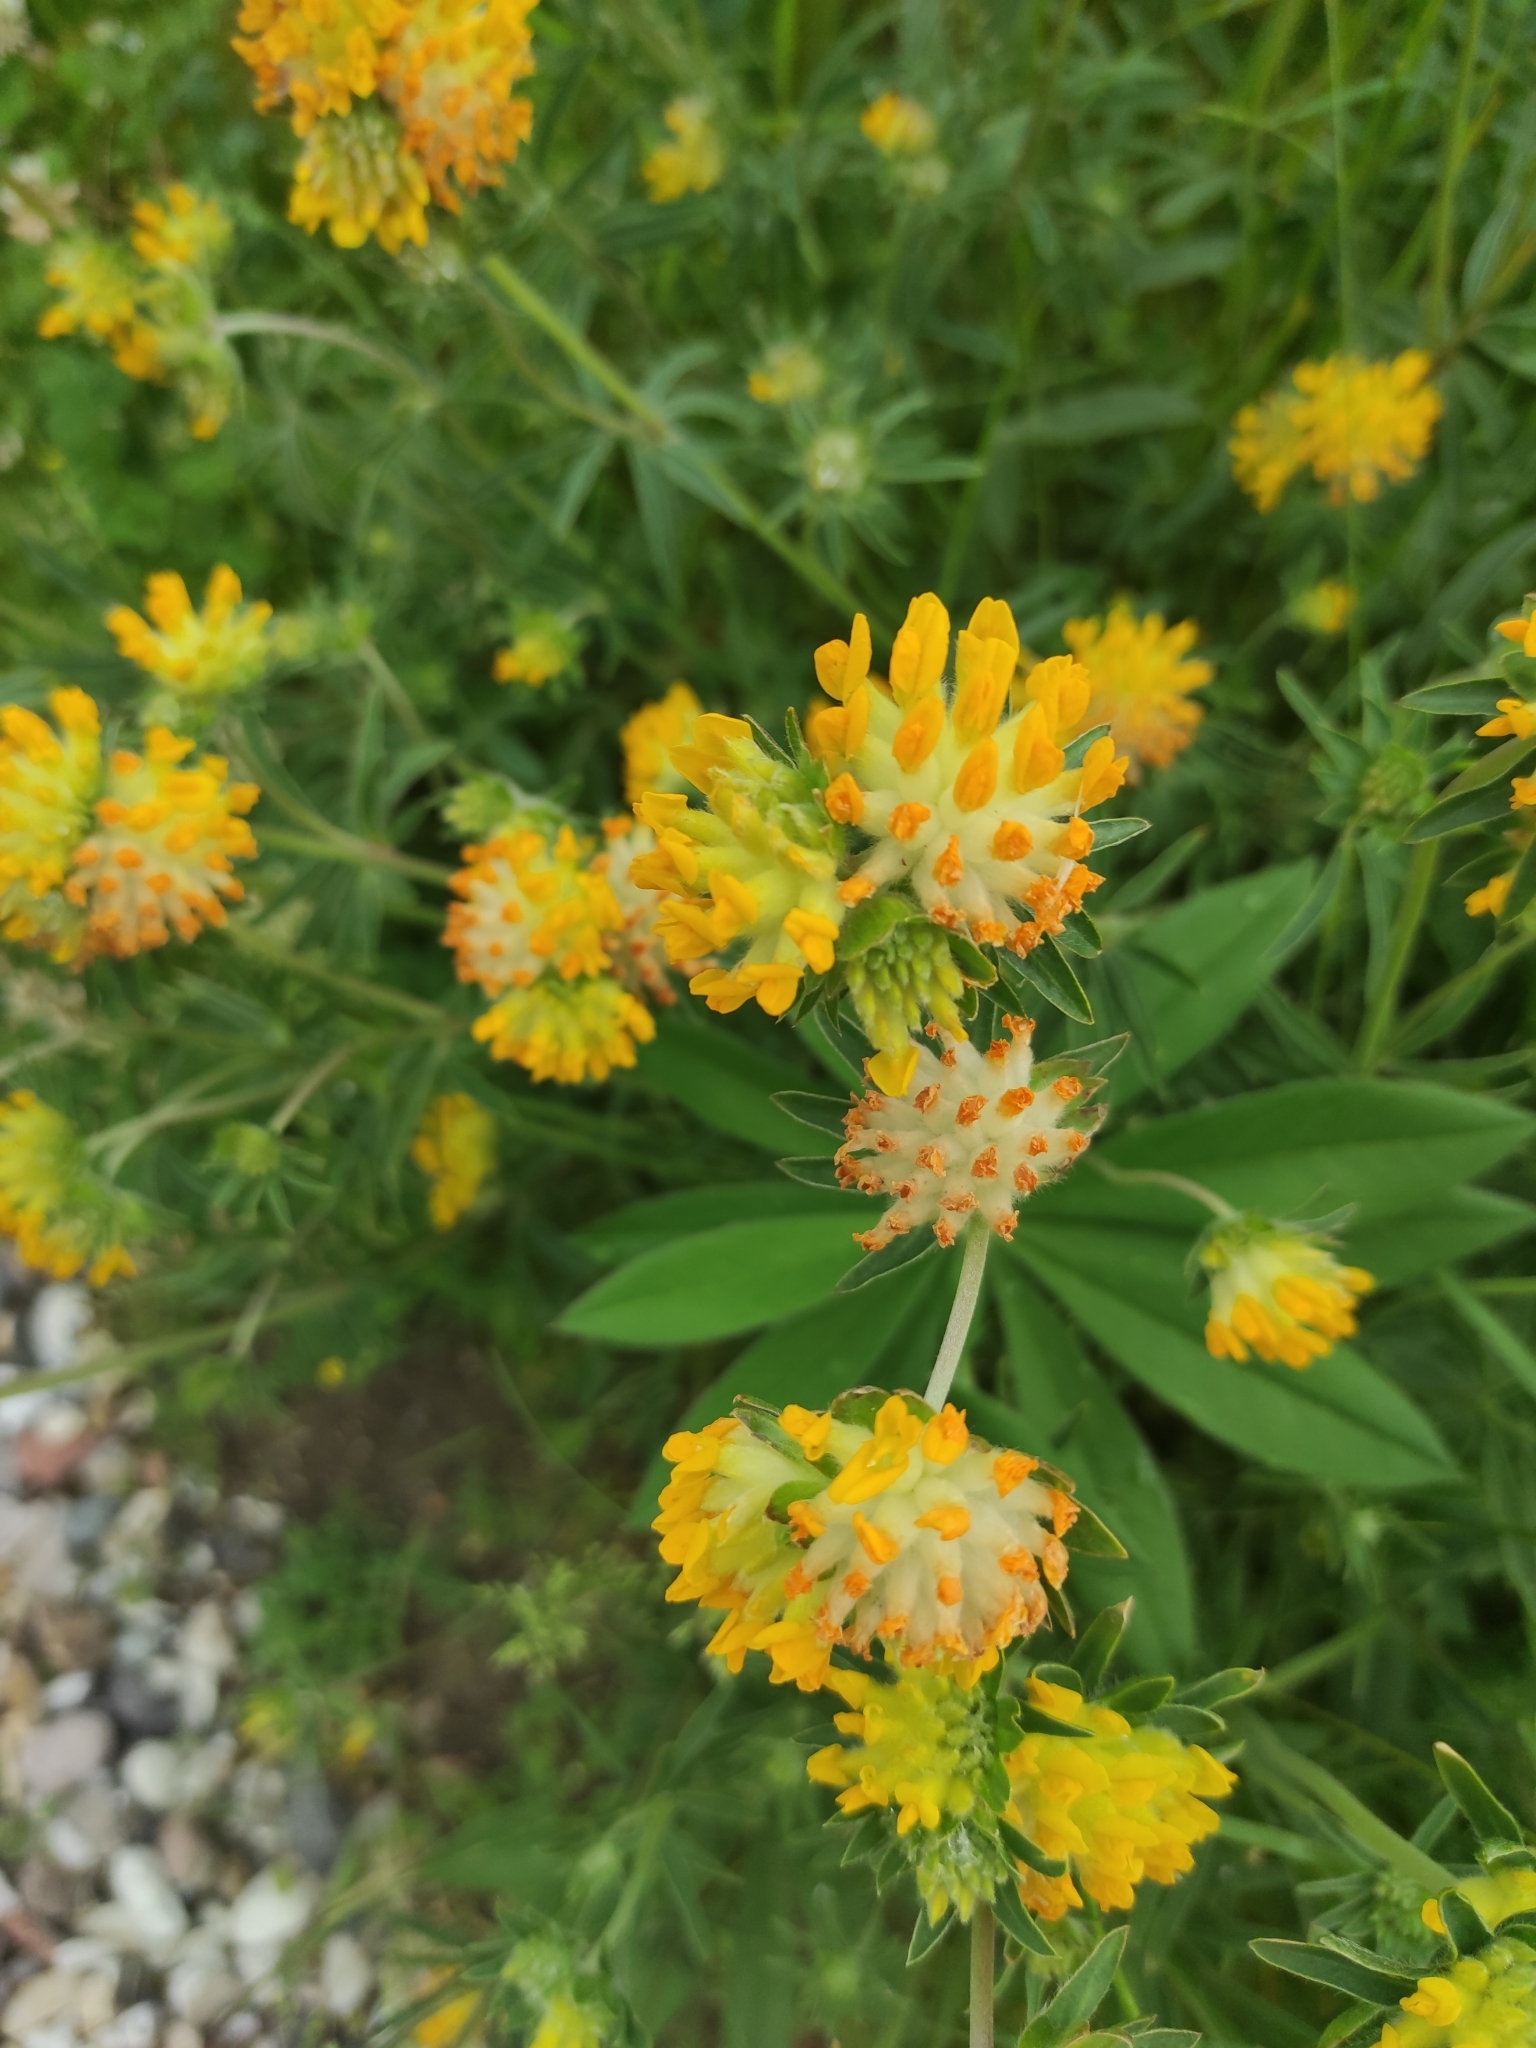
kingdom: Plantae
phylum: Tracheophyta
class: Magnoliopsida
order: Fabales
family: Fabaceae
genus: Anthyllis
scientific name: Anthyllis vulneraria
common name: Kidney vetch
